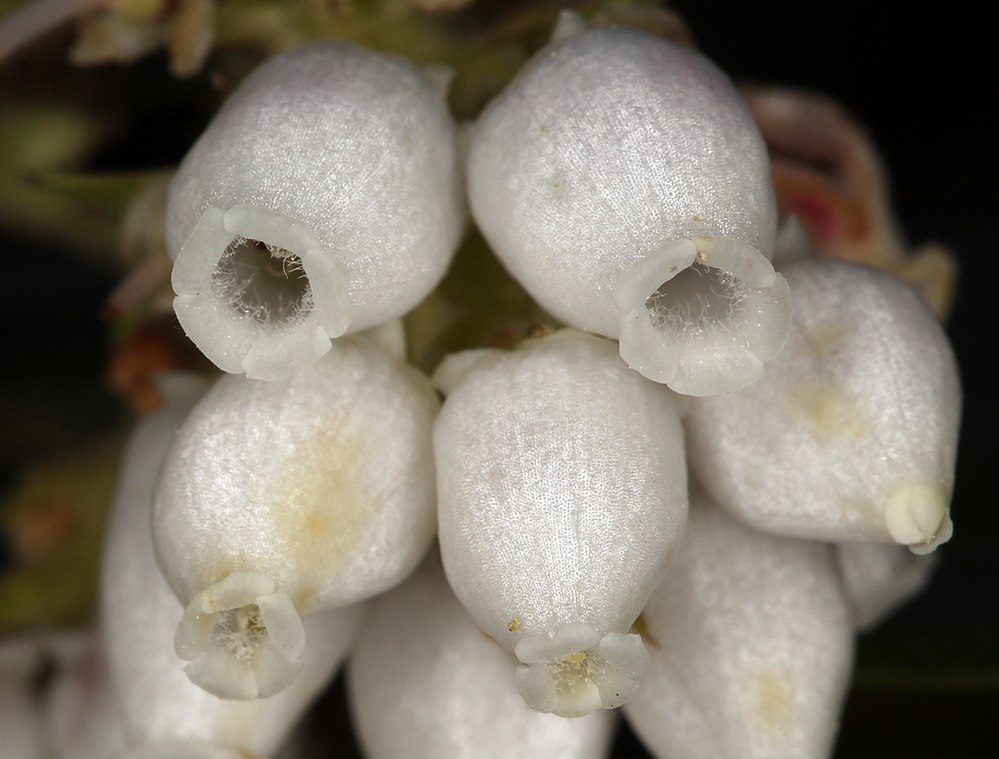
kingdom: Plantae
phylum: Tracheophyta
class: Magnoliopsida
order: Ericales
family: Ericaceae
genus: Arctostaphylos
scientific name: Arctostaphylos crustacea
